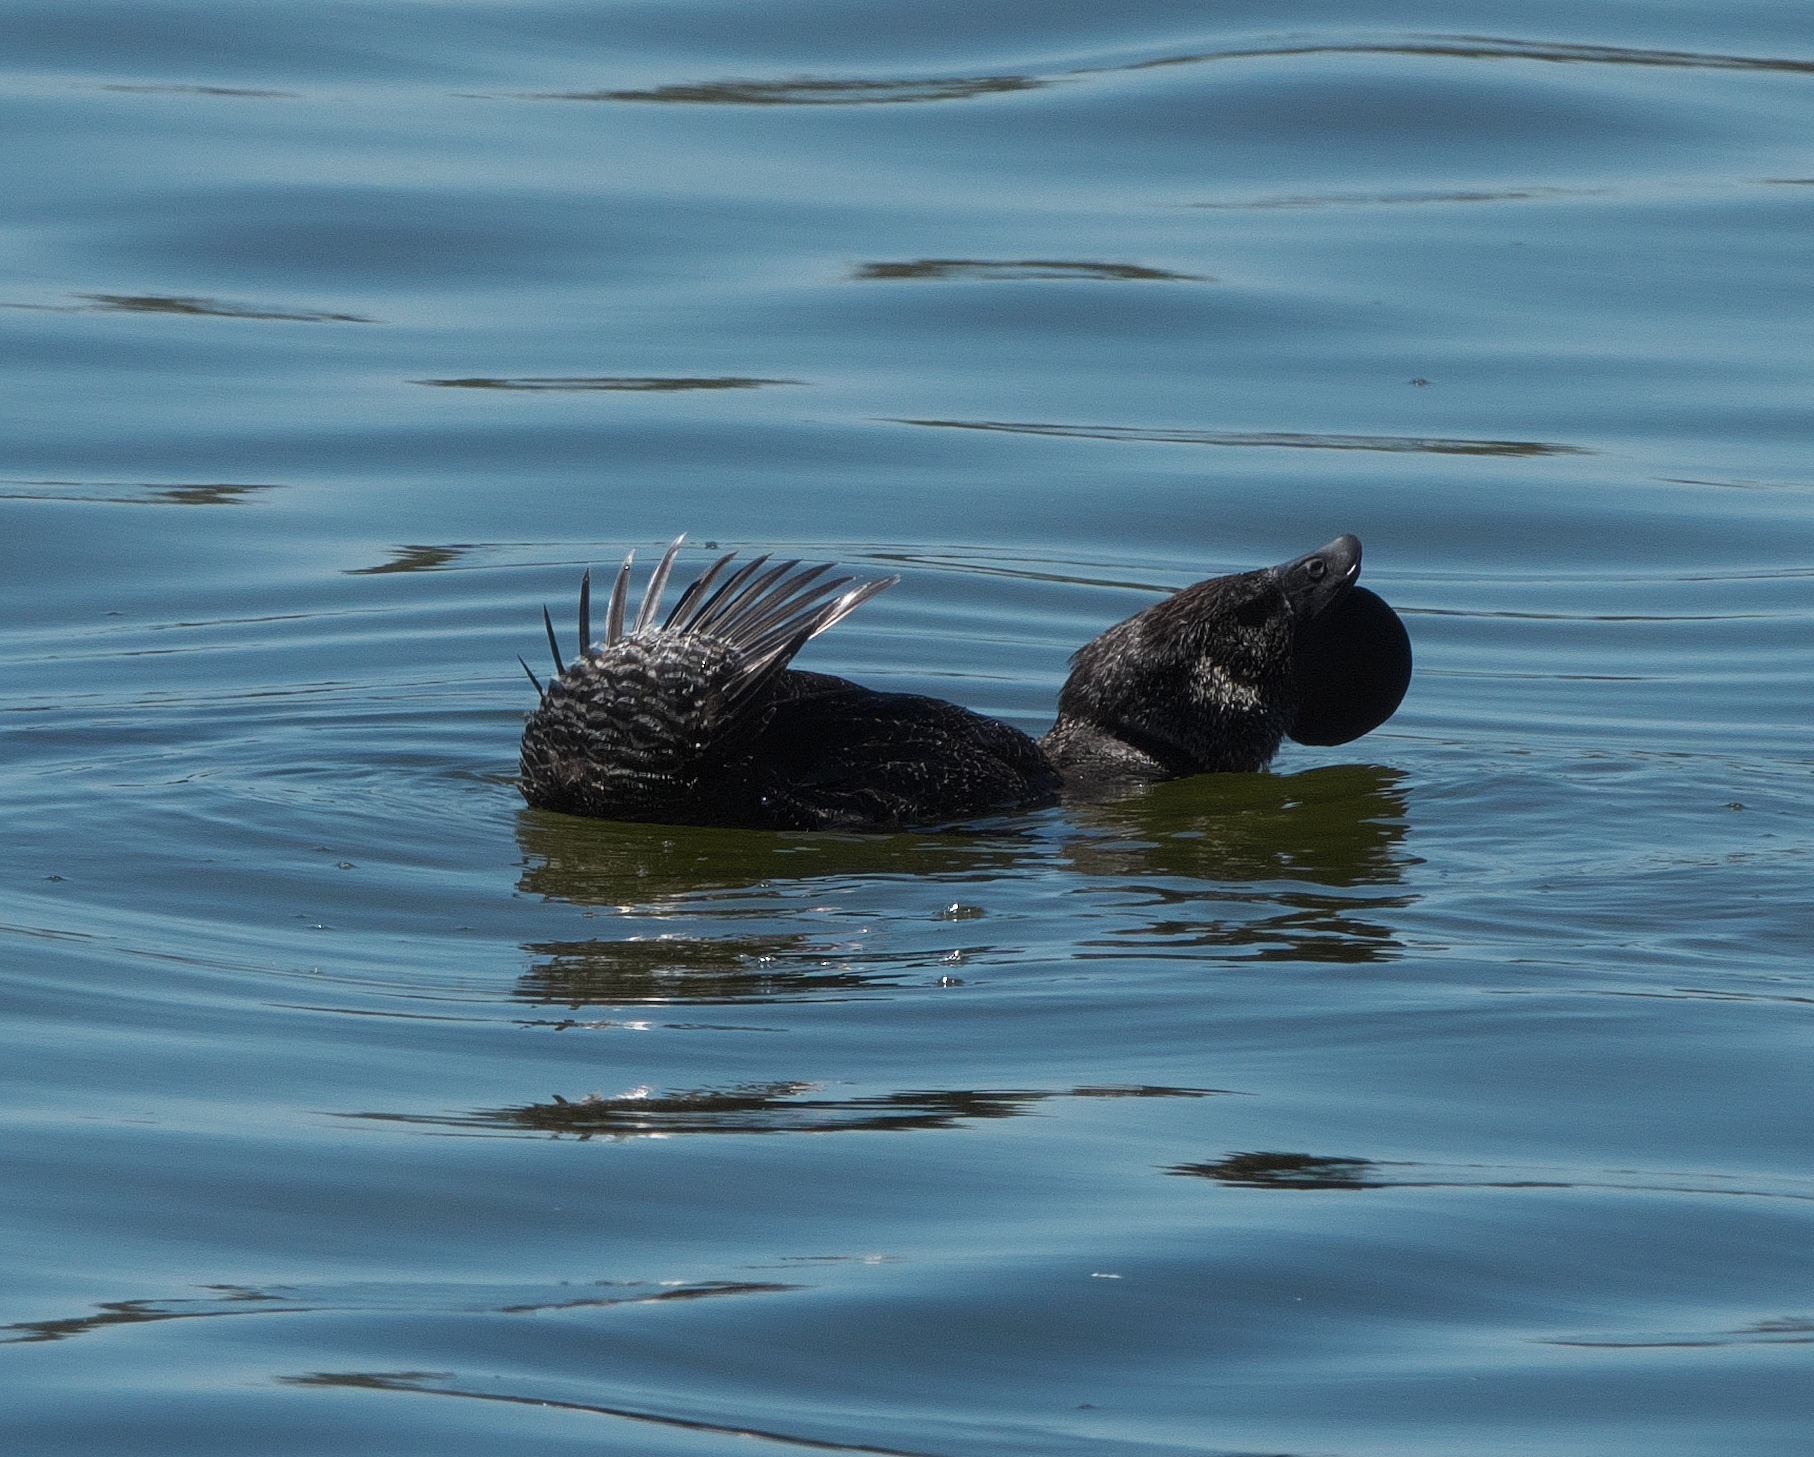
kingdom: Animalia
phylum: Chordata
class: Aves
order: Anseriformes
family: Anatidae
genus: Biziura
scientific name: Biziura lobata
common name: Musk duck
